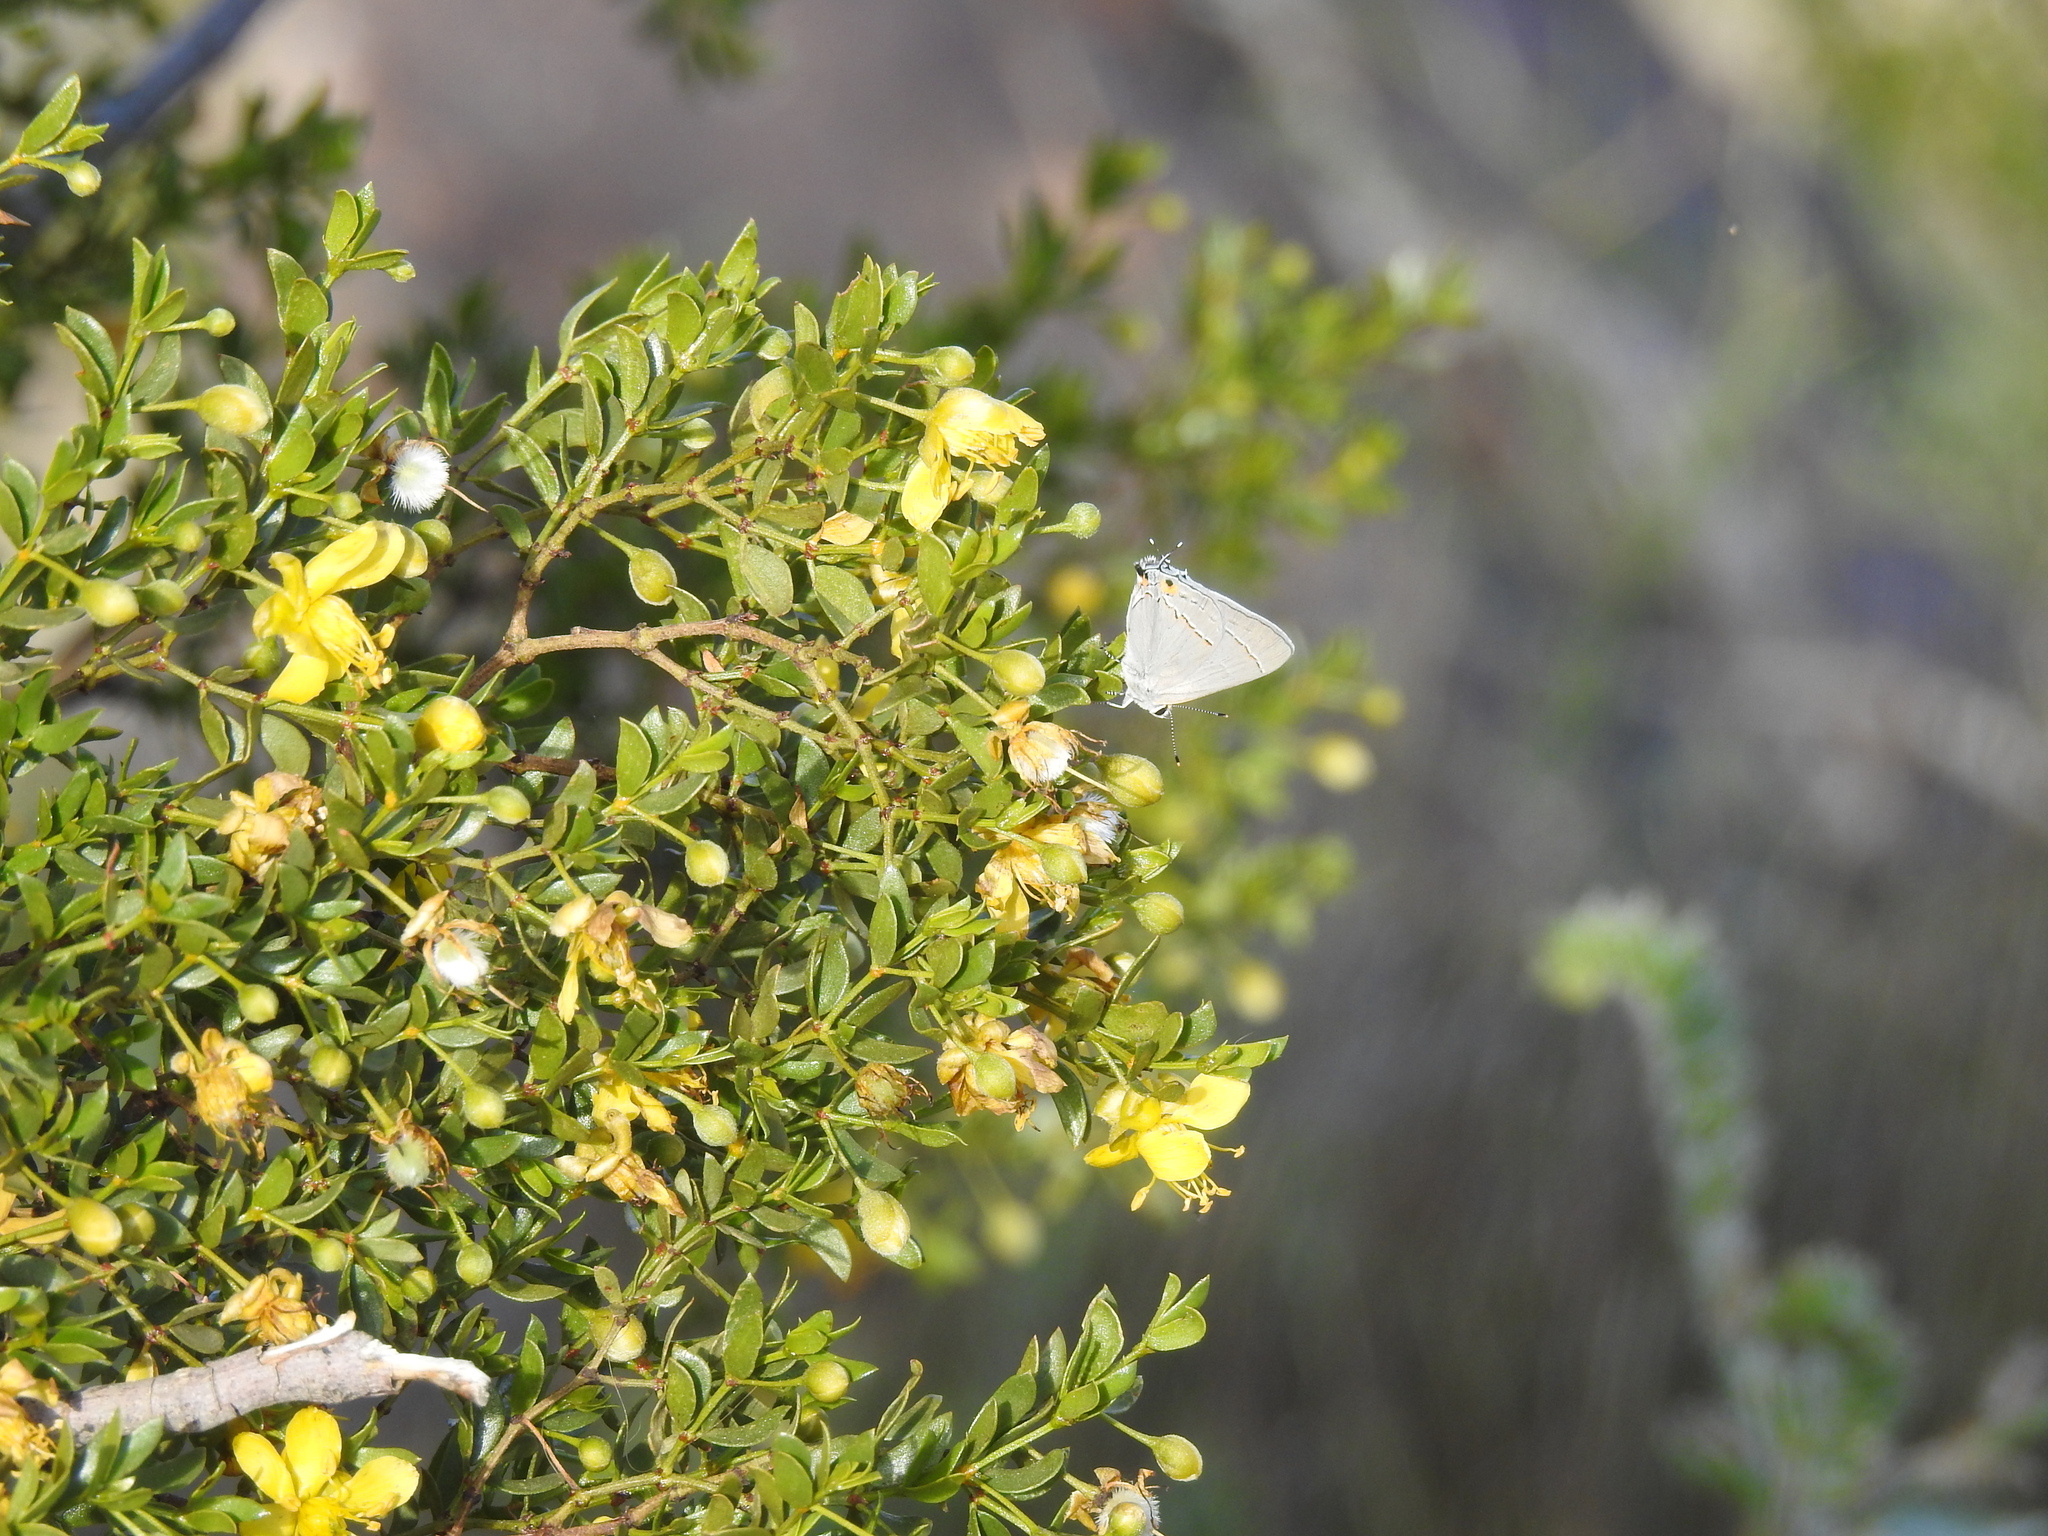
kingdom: Animalia
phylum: Arthropoda
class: Insecta
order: Lepidoptera
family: Lycaenidae
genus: Strymon
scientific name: Strymon melinus
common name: Gray hairstreak
